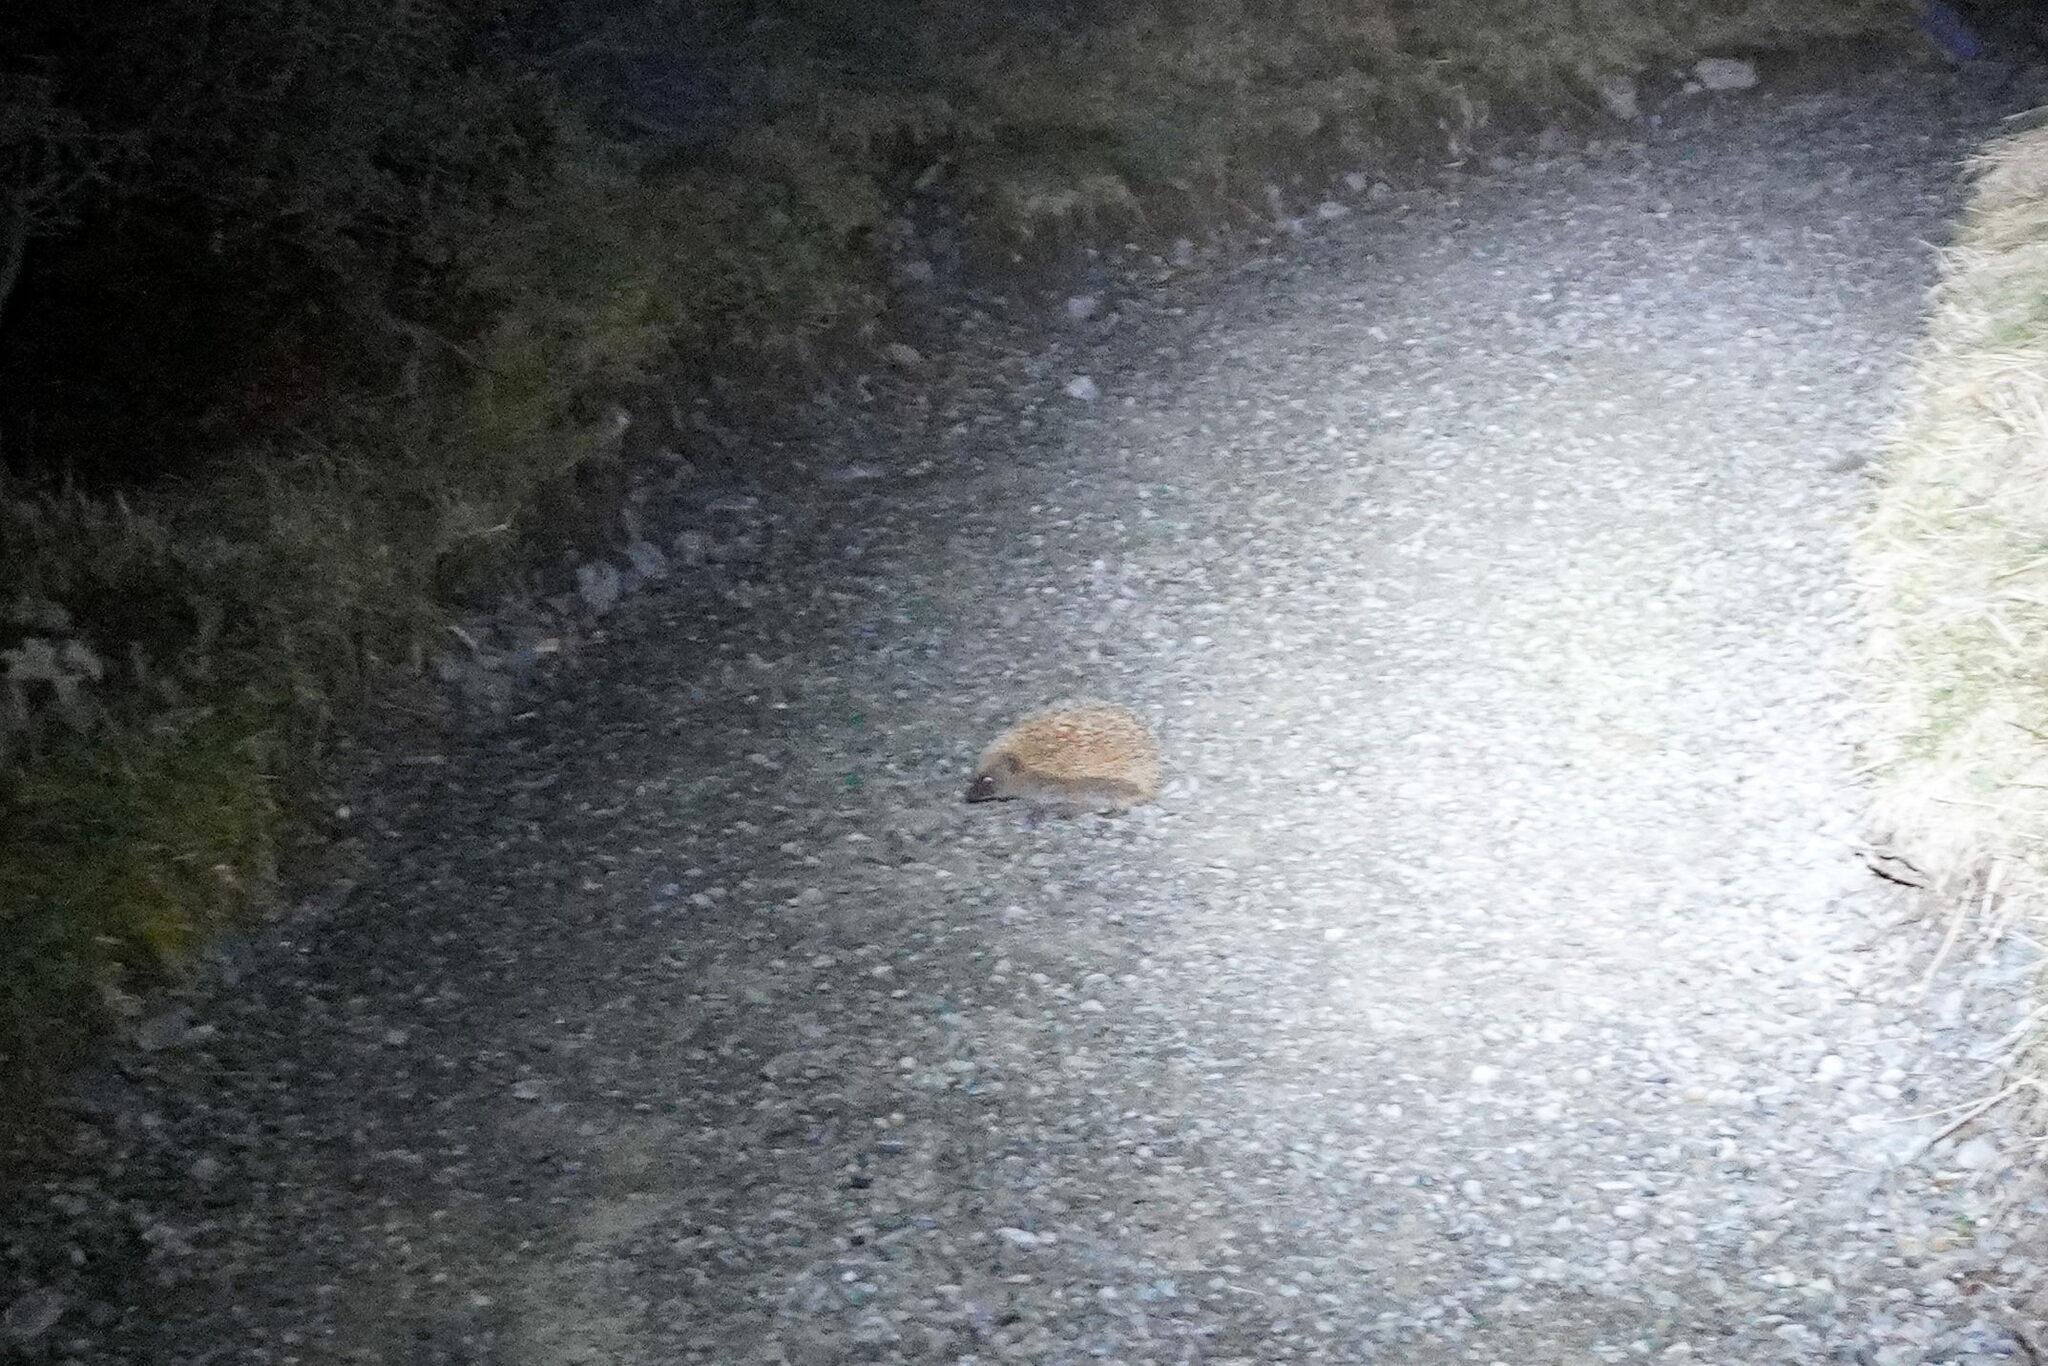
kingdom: Animalia
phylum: Chordata
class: Mammalia
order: Erinaceomorpha
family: Erinaceidae
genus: Erinaceus
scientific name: Erinaceus europaeus
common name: West european hedgehog
